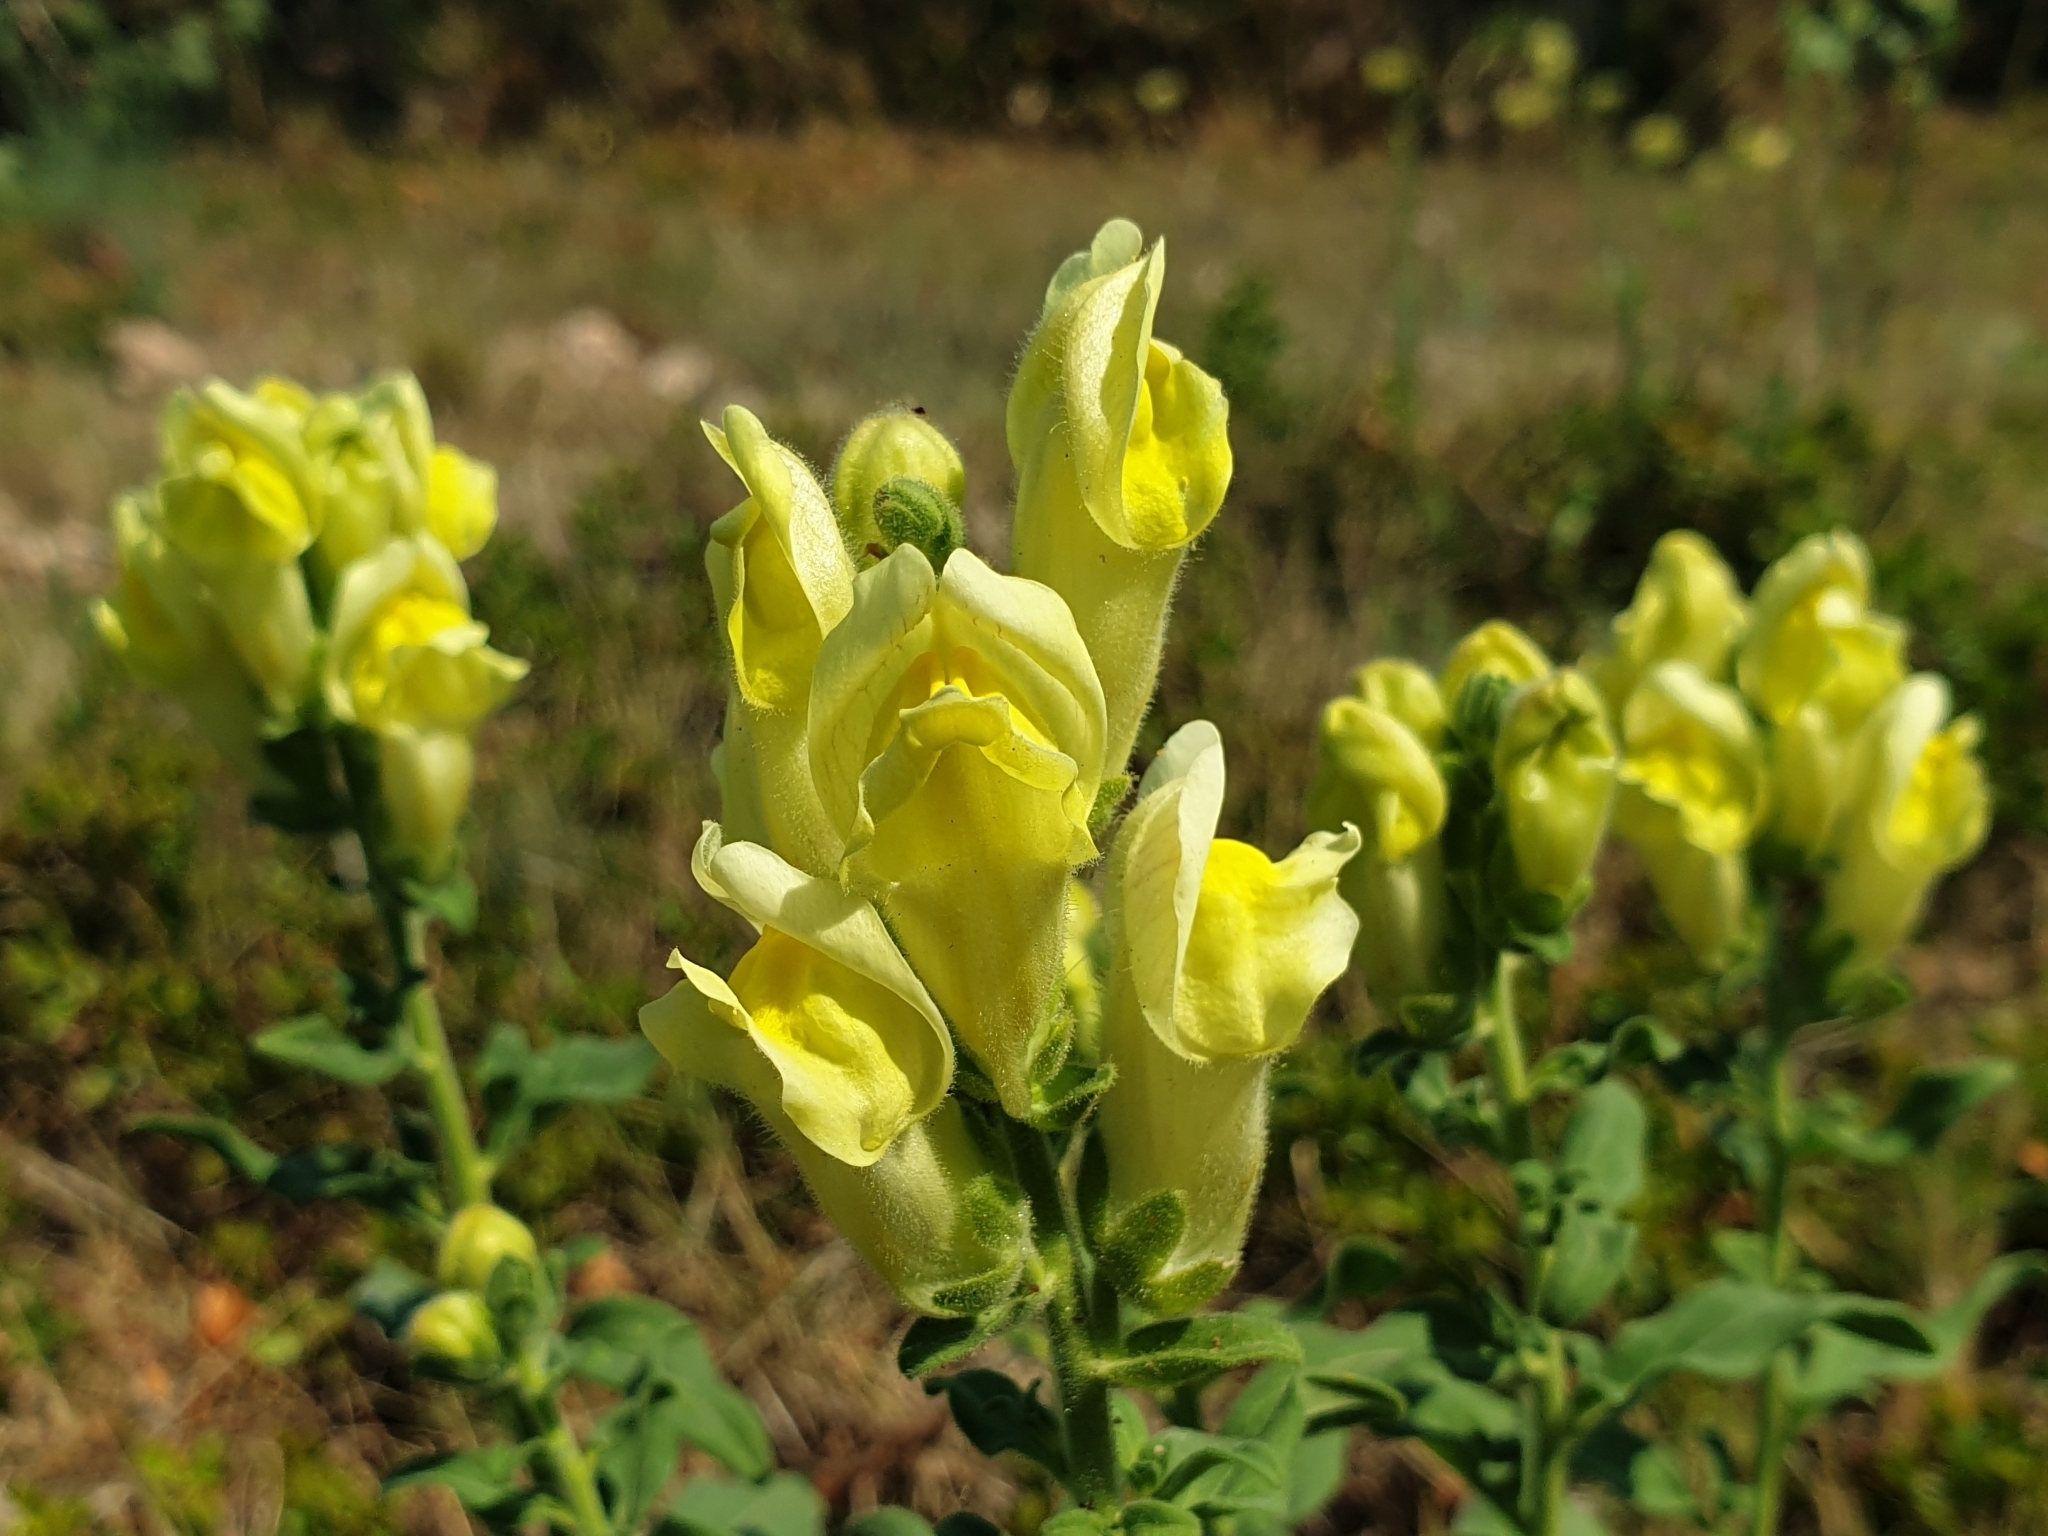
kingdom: Plantae
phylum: Tracheophyta
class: Magnoliopsida
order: Lamiales
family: Plantaginaceae
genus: Antirrhinum
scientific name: Antirrhinum latifolium
